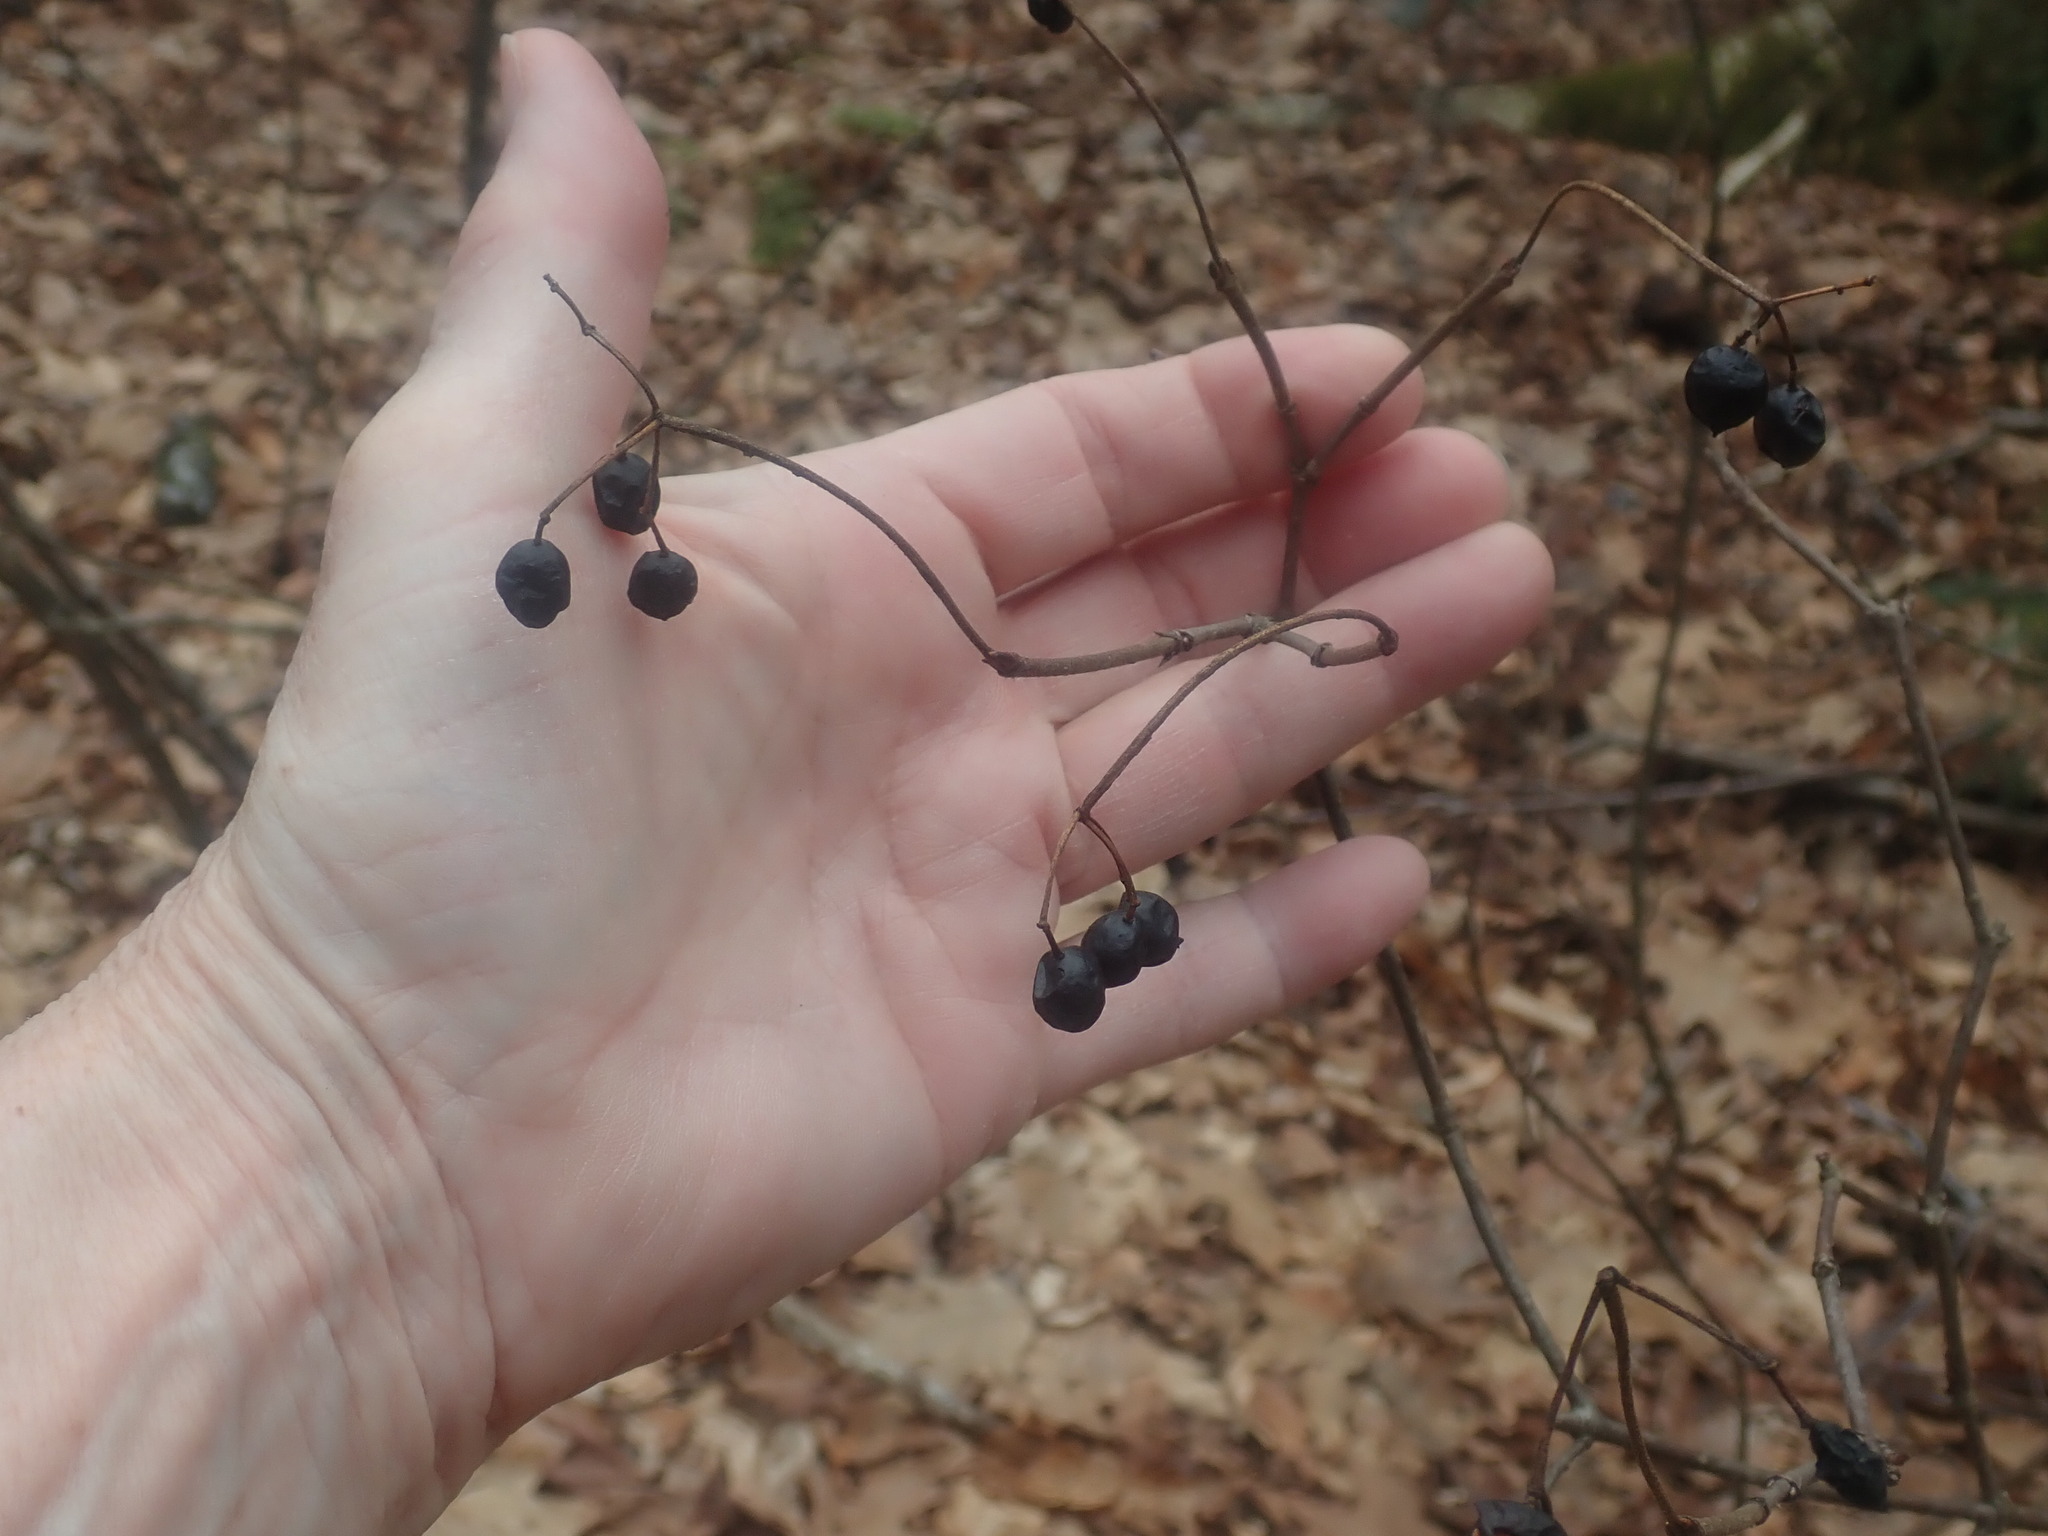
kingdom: Plantae
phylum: Tracheophyta
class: Magnoliopsida
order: Dipsacales
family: Viburnaceae
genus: Viburnum
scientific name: Viburnum acerifolium
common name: Dockmackie
